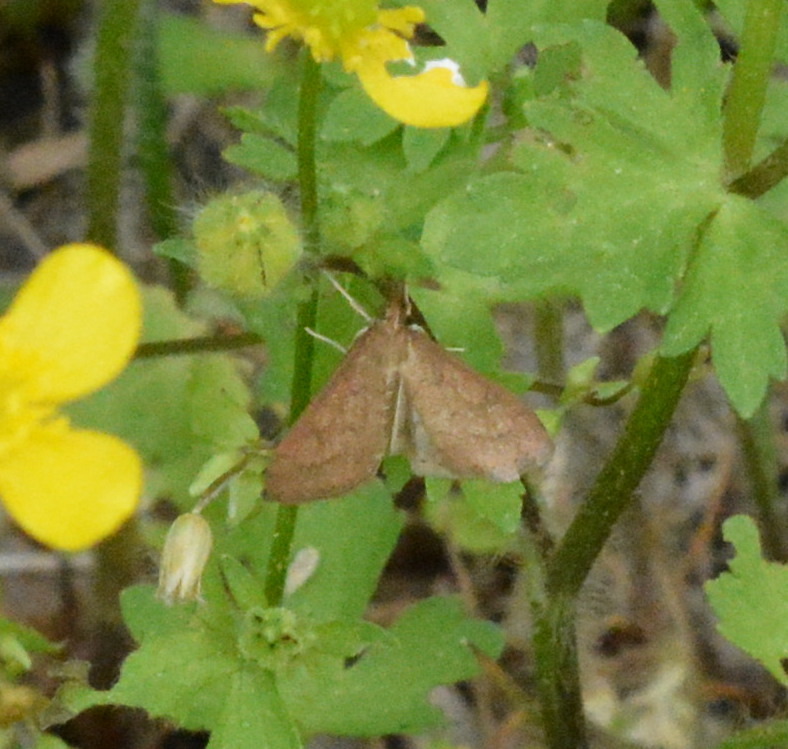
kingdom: Animalia
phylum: Arthropoda
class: Insecta
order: Lepidoptera
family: Crambidae
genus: Udea
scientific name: Udea rubigalis
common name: Celery leaftier moth
